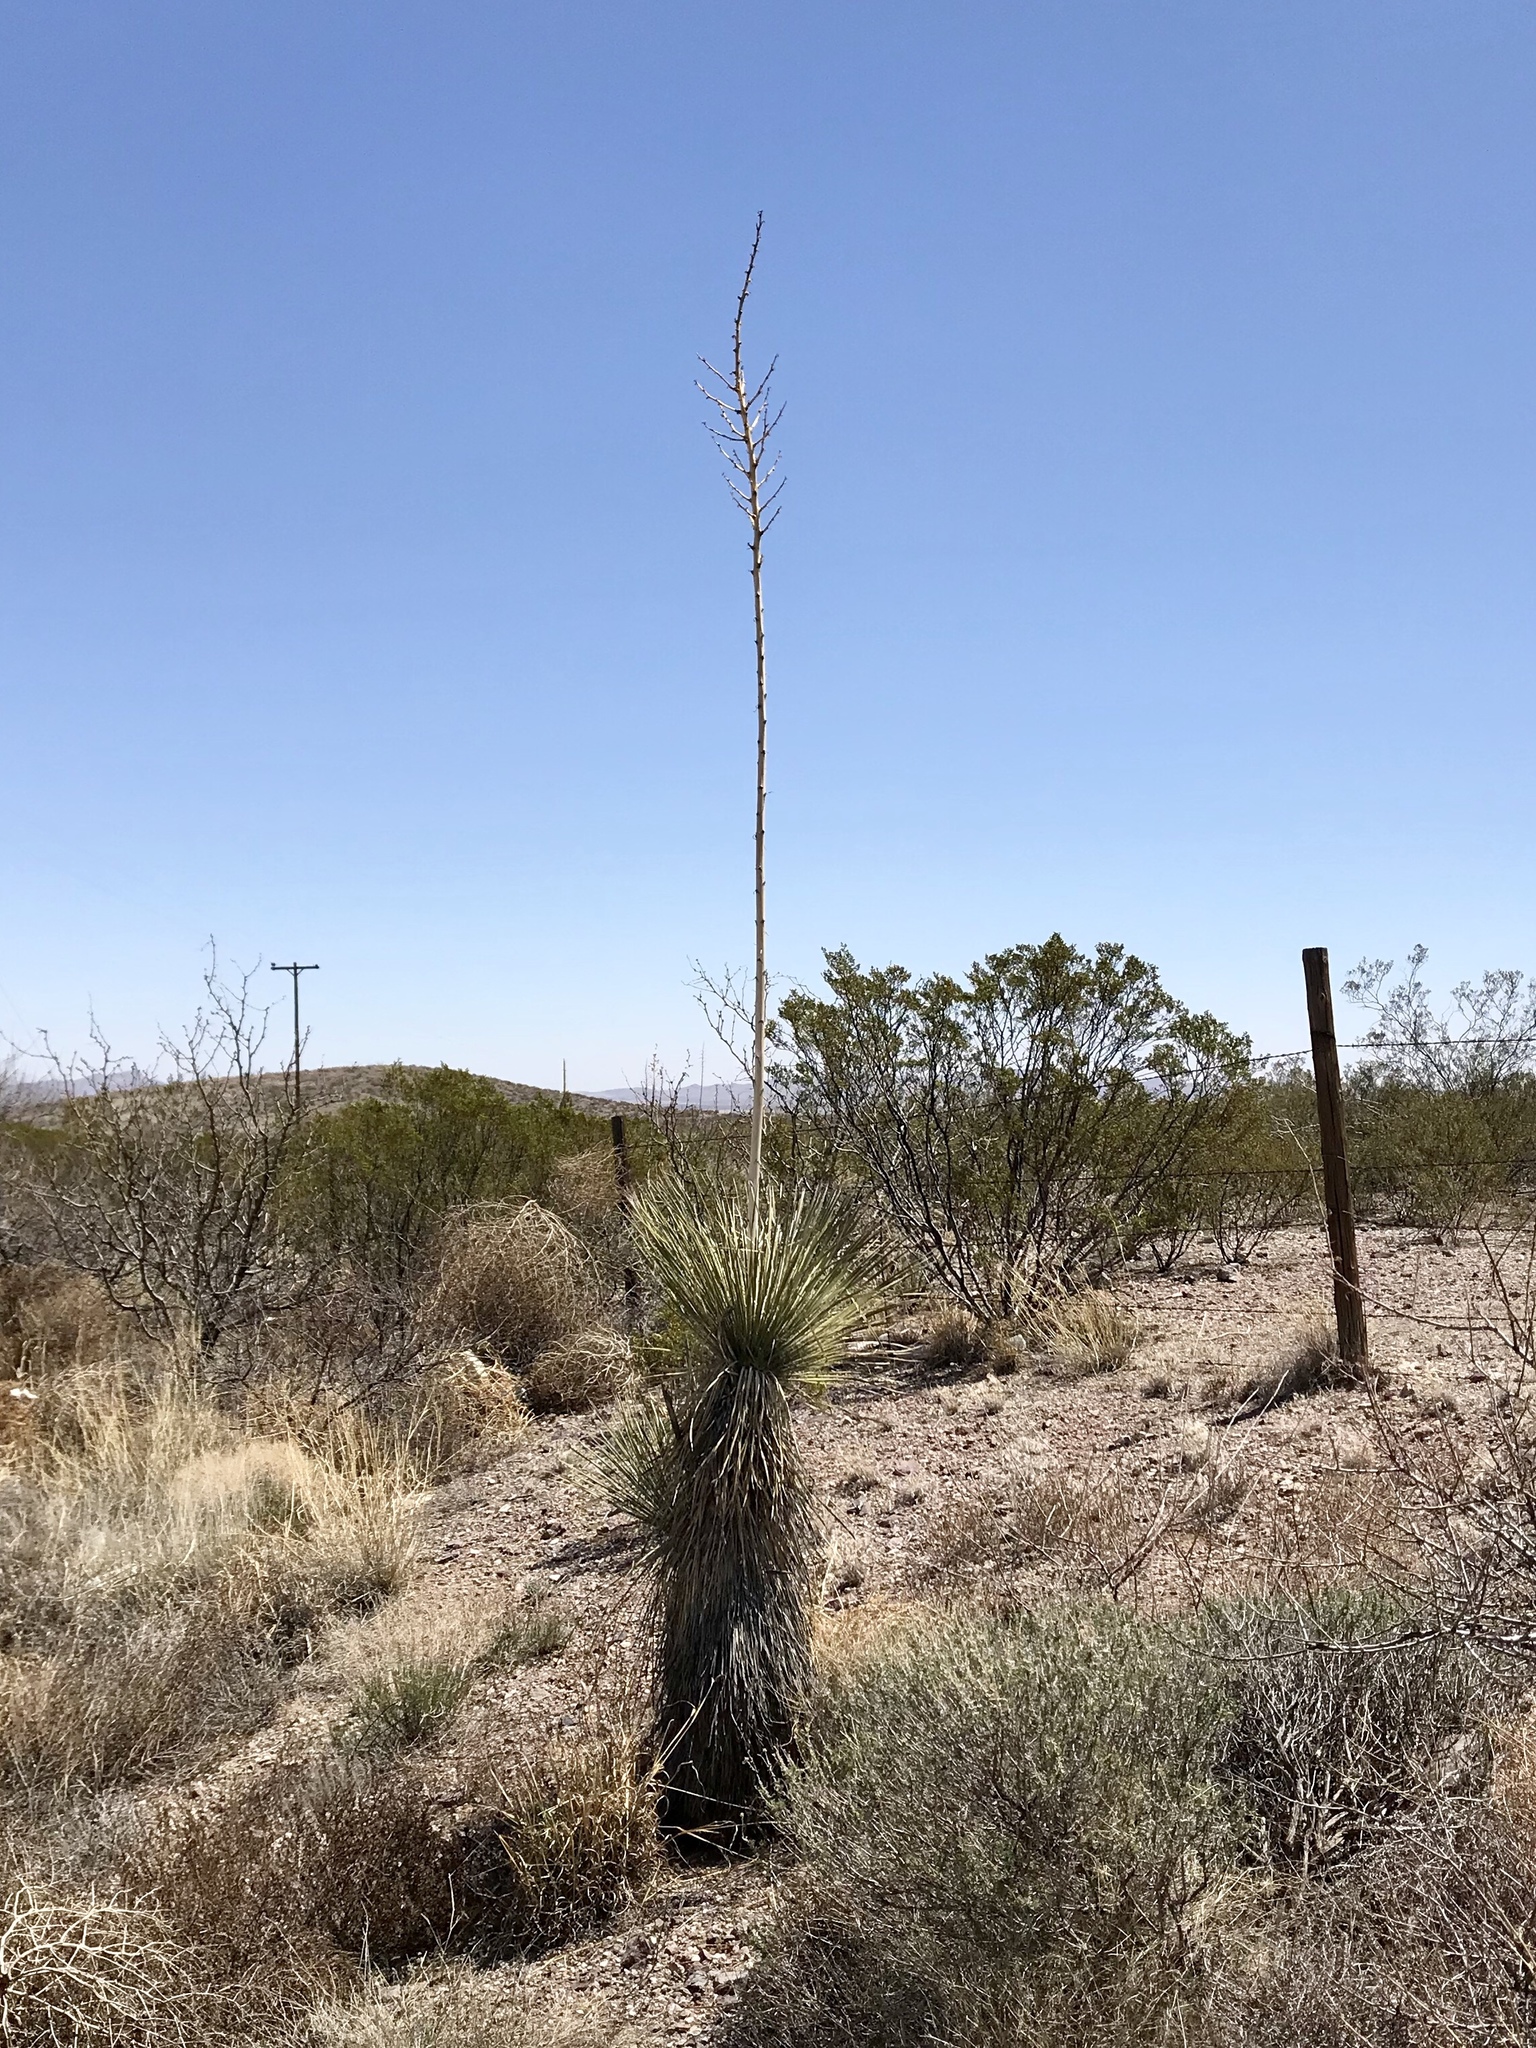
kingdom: Plantae
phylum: Tracheophyta
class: Liliopsida
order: Asparagales
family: Asparagaceae
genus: Yucca
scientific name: Yucca elata
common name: Palmella
